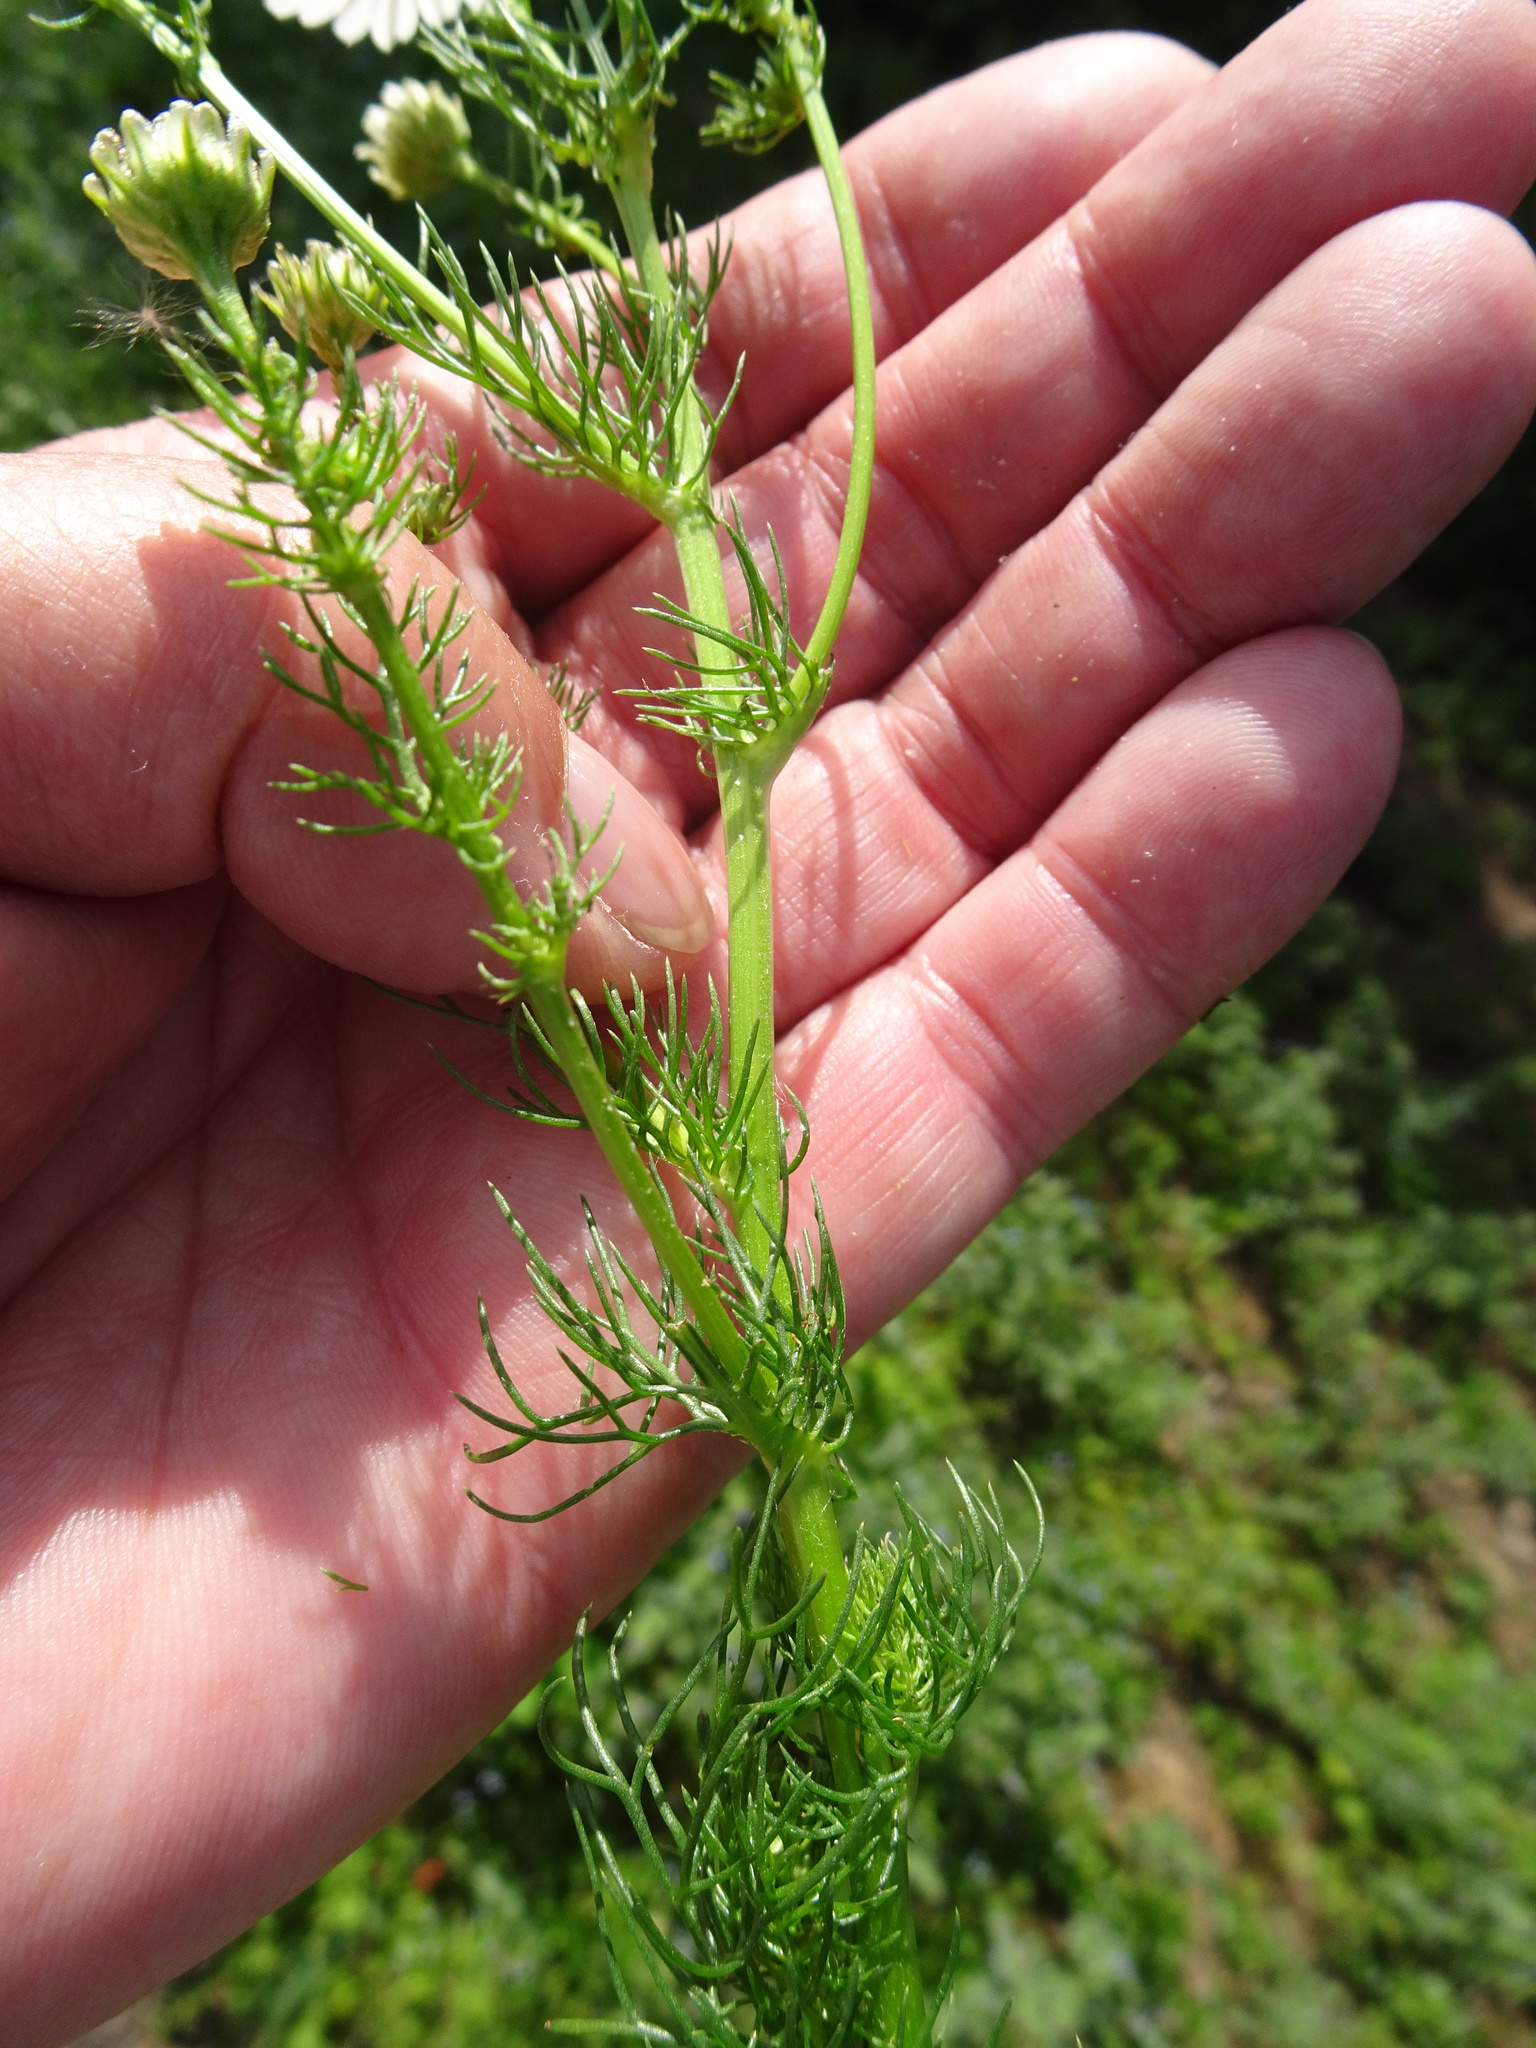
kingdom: Plantae
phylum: Tracheophyta
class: Magnoliopsida
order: Asterales
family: Asteraceae
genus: Tripleurospermum
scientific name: Tripleurospermum inodorum
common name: Scentless mayweed
